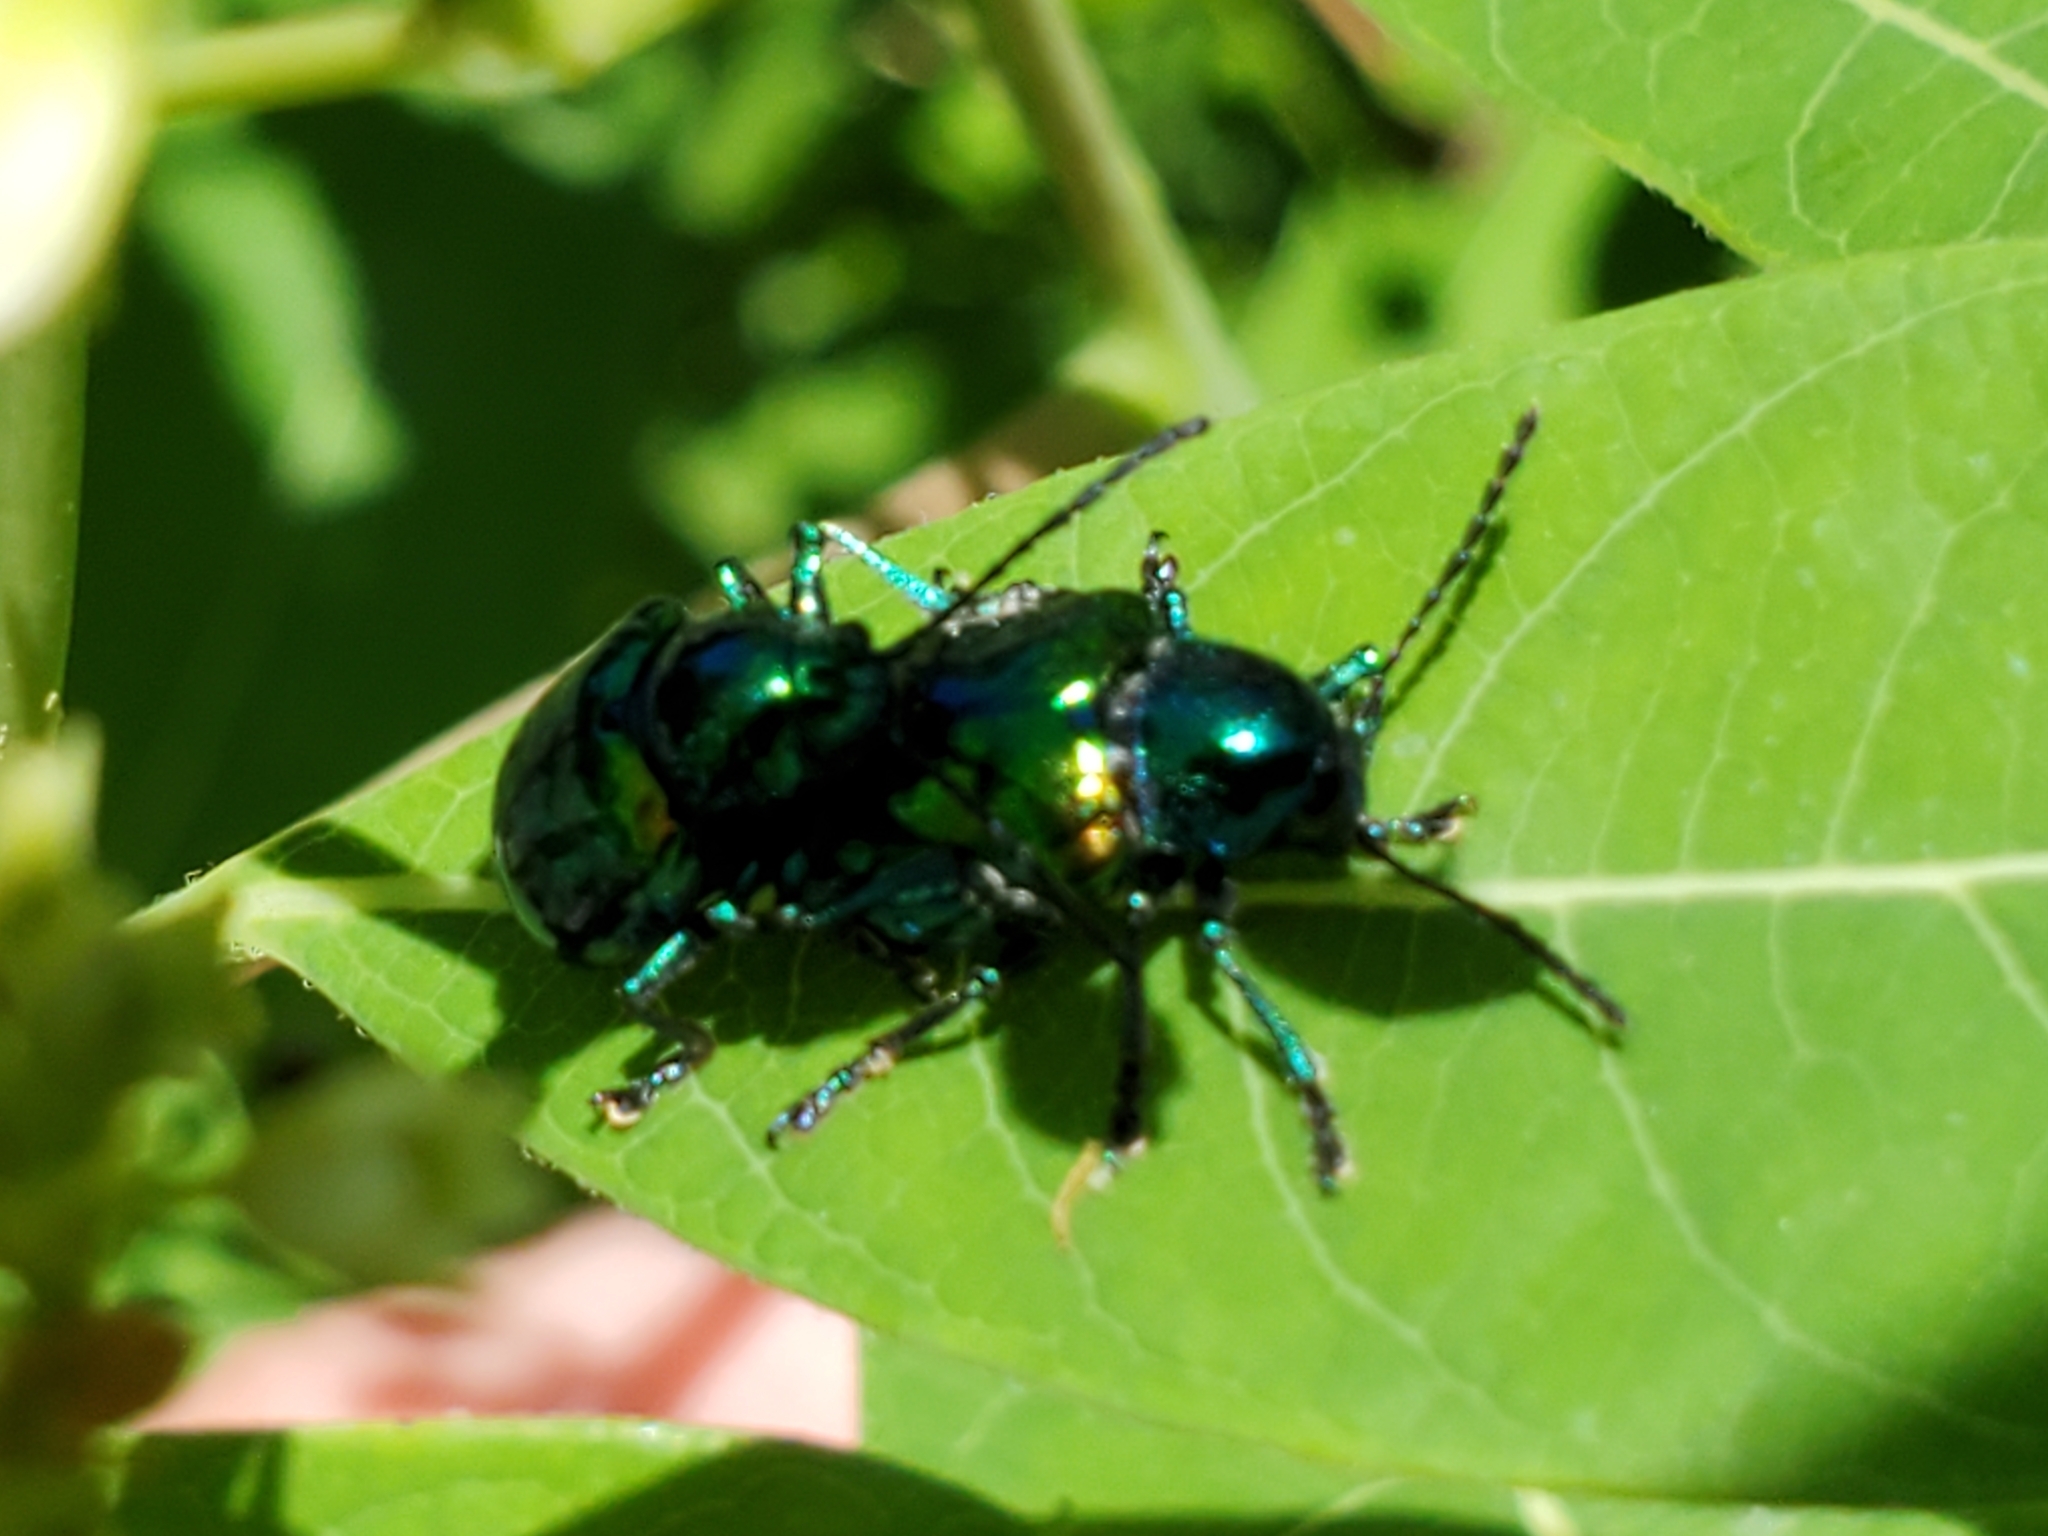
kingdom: Animalia
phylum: Arthropoda
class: Insecta
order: Coleoptera
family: Chrysomelidae
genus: Chrysochus
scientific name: Chrysochus auratus
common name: Dogbane leaf beetle
